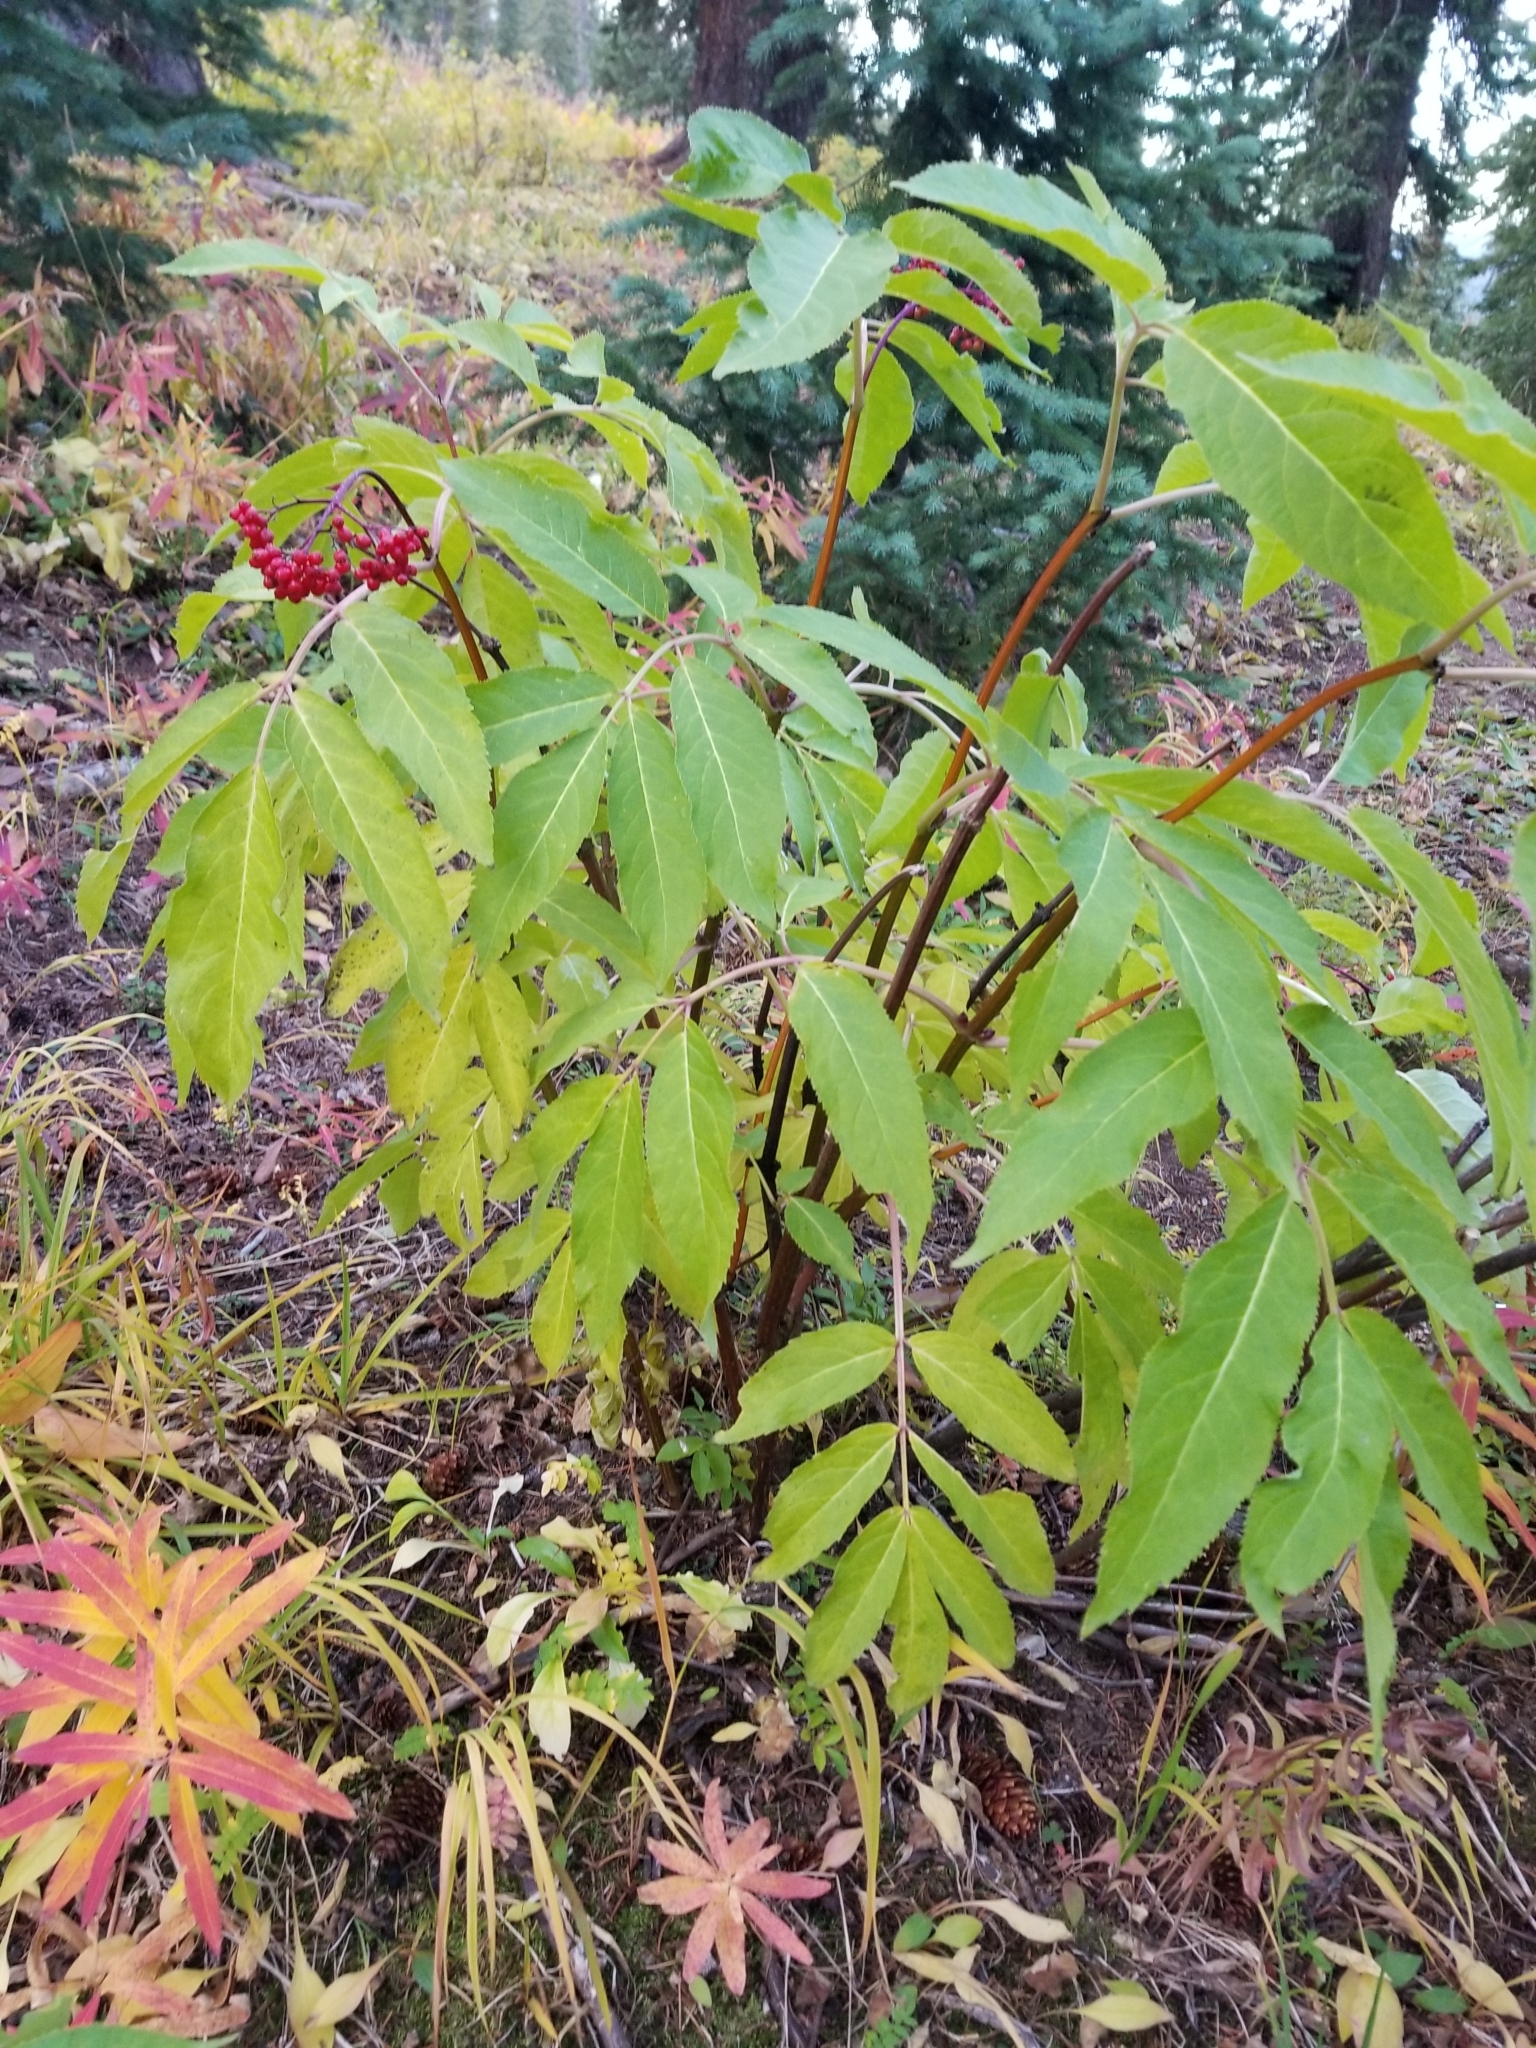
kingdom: Plantae
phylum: Tracheophyta
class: Magnoliopsida
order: Dipsacales
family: Viburnaceae
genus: Sambucus
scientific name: Sambucus racemosa
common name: Red-berried elder
